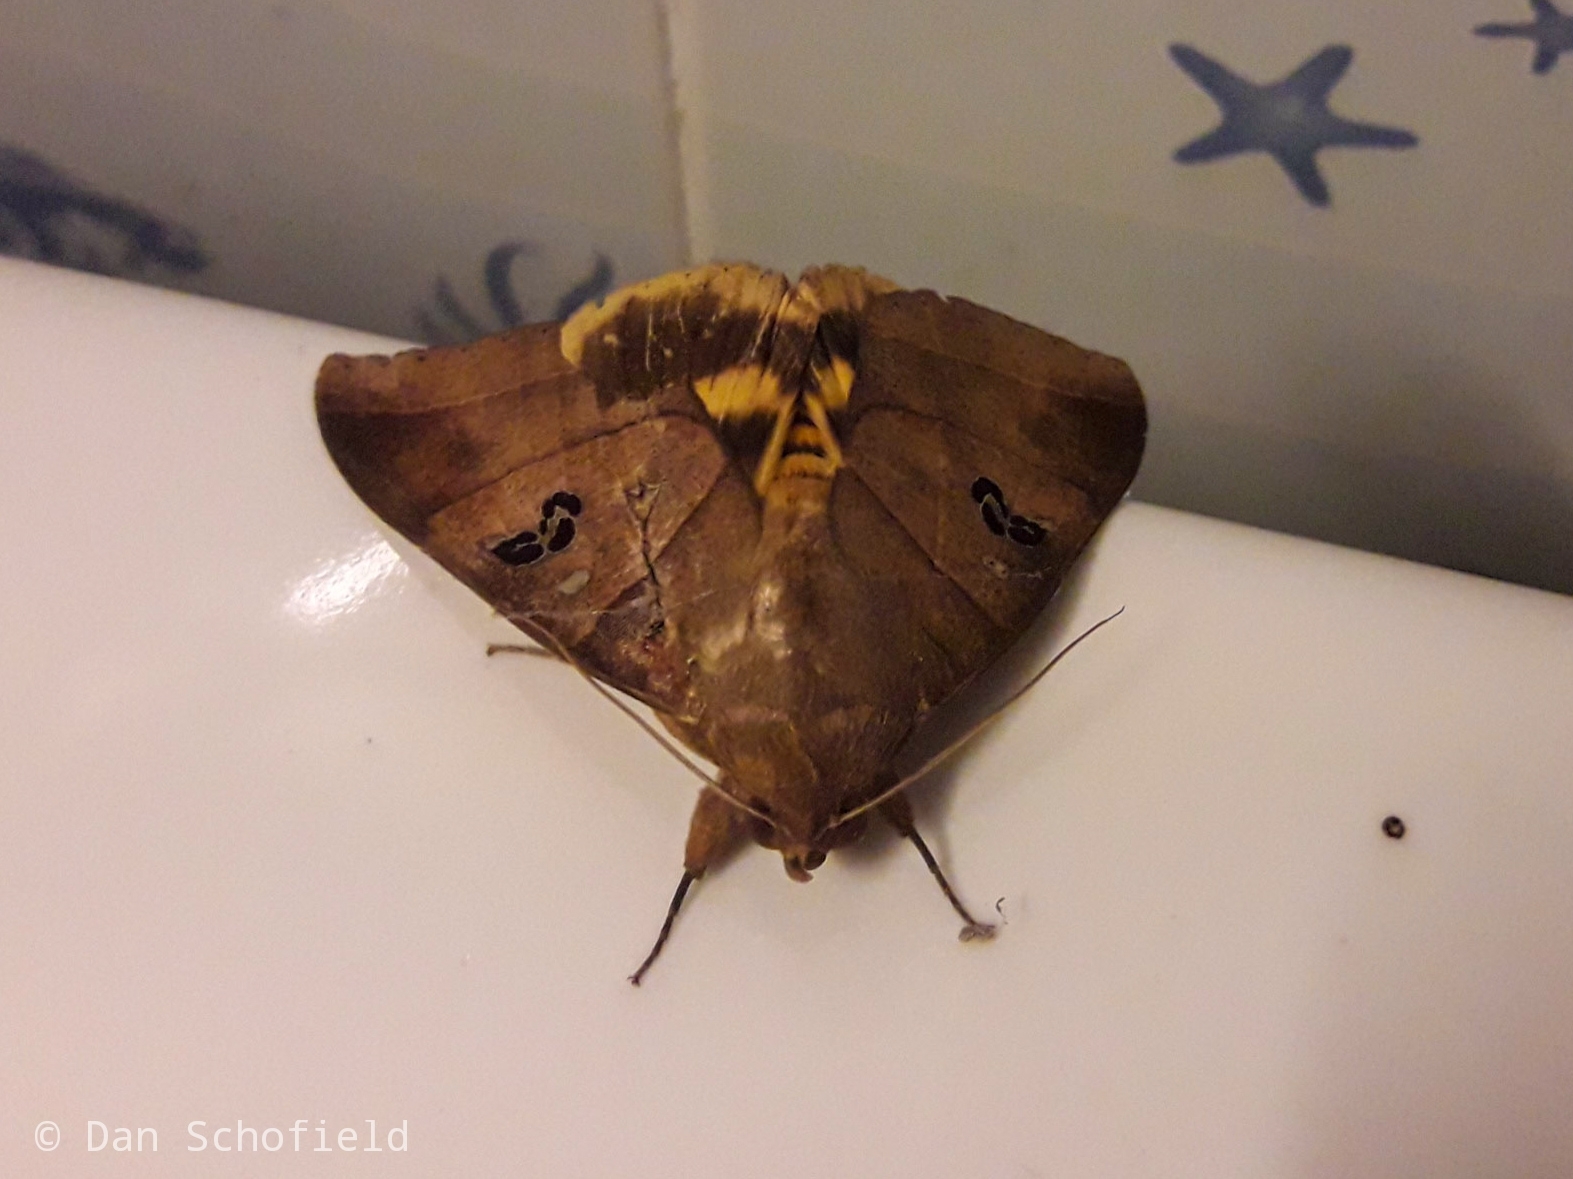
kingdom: Animalia
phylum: Arthropoda
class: Insecta
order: Lepidoptera
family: Erebidae
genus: Thyas
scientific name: Thyas coronata
